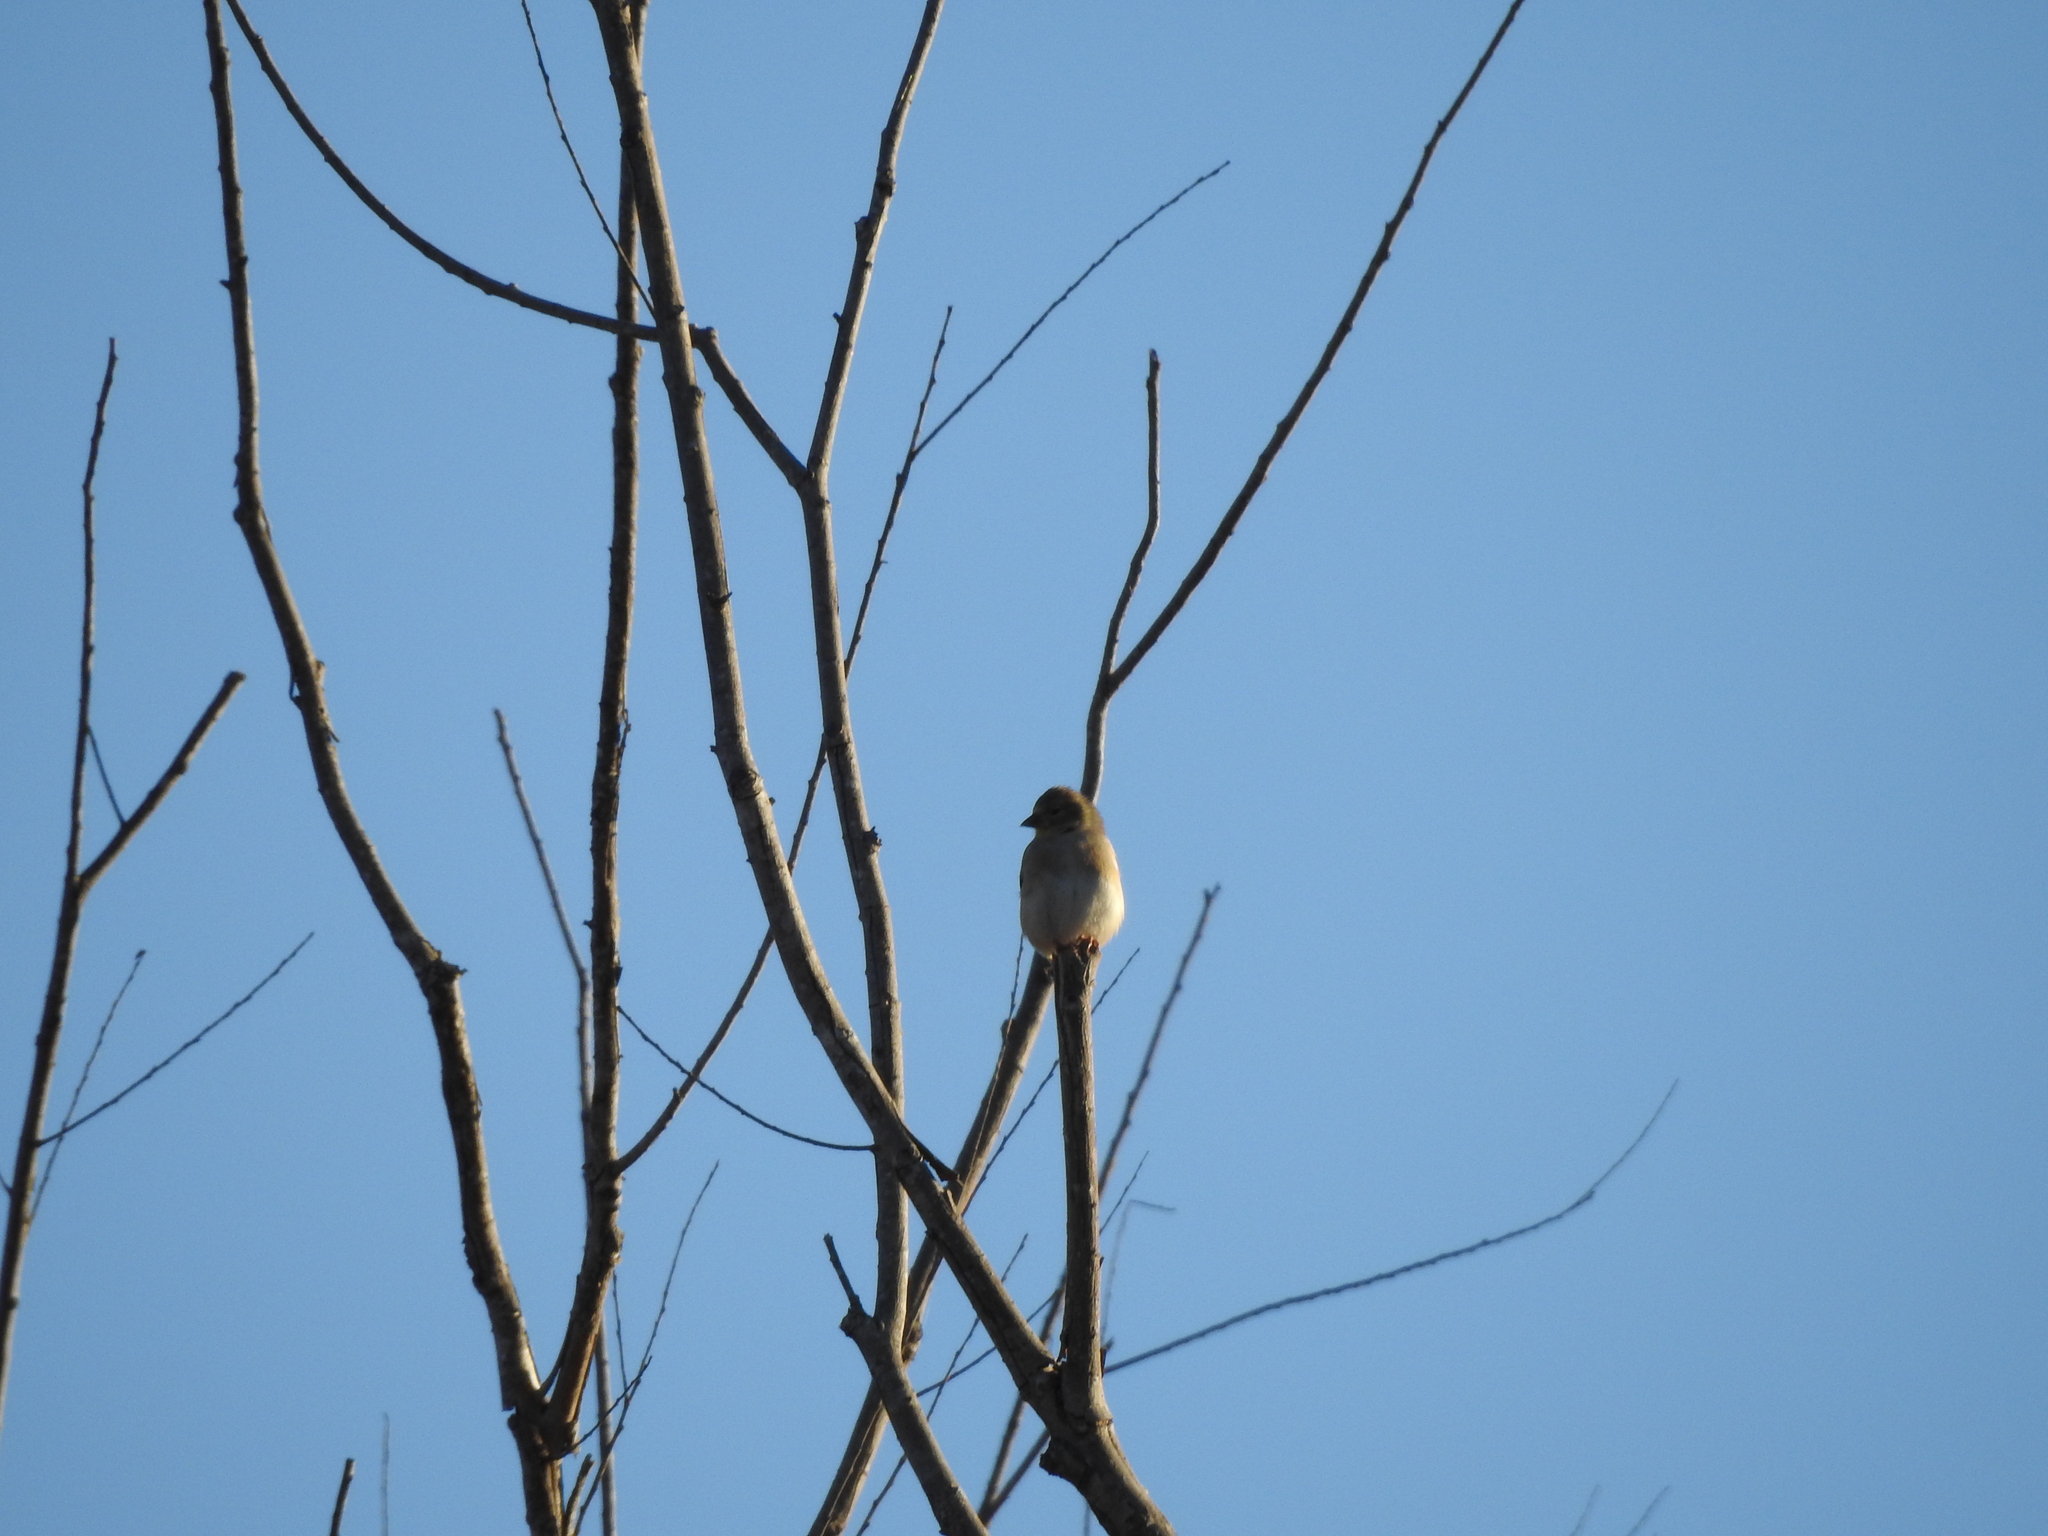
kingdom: Animalia
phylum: Chordata
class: Aves
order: Passeriformes
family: Fringillidae
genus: Spinus
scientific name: Spinus tristis
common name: American goldfinch
